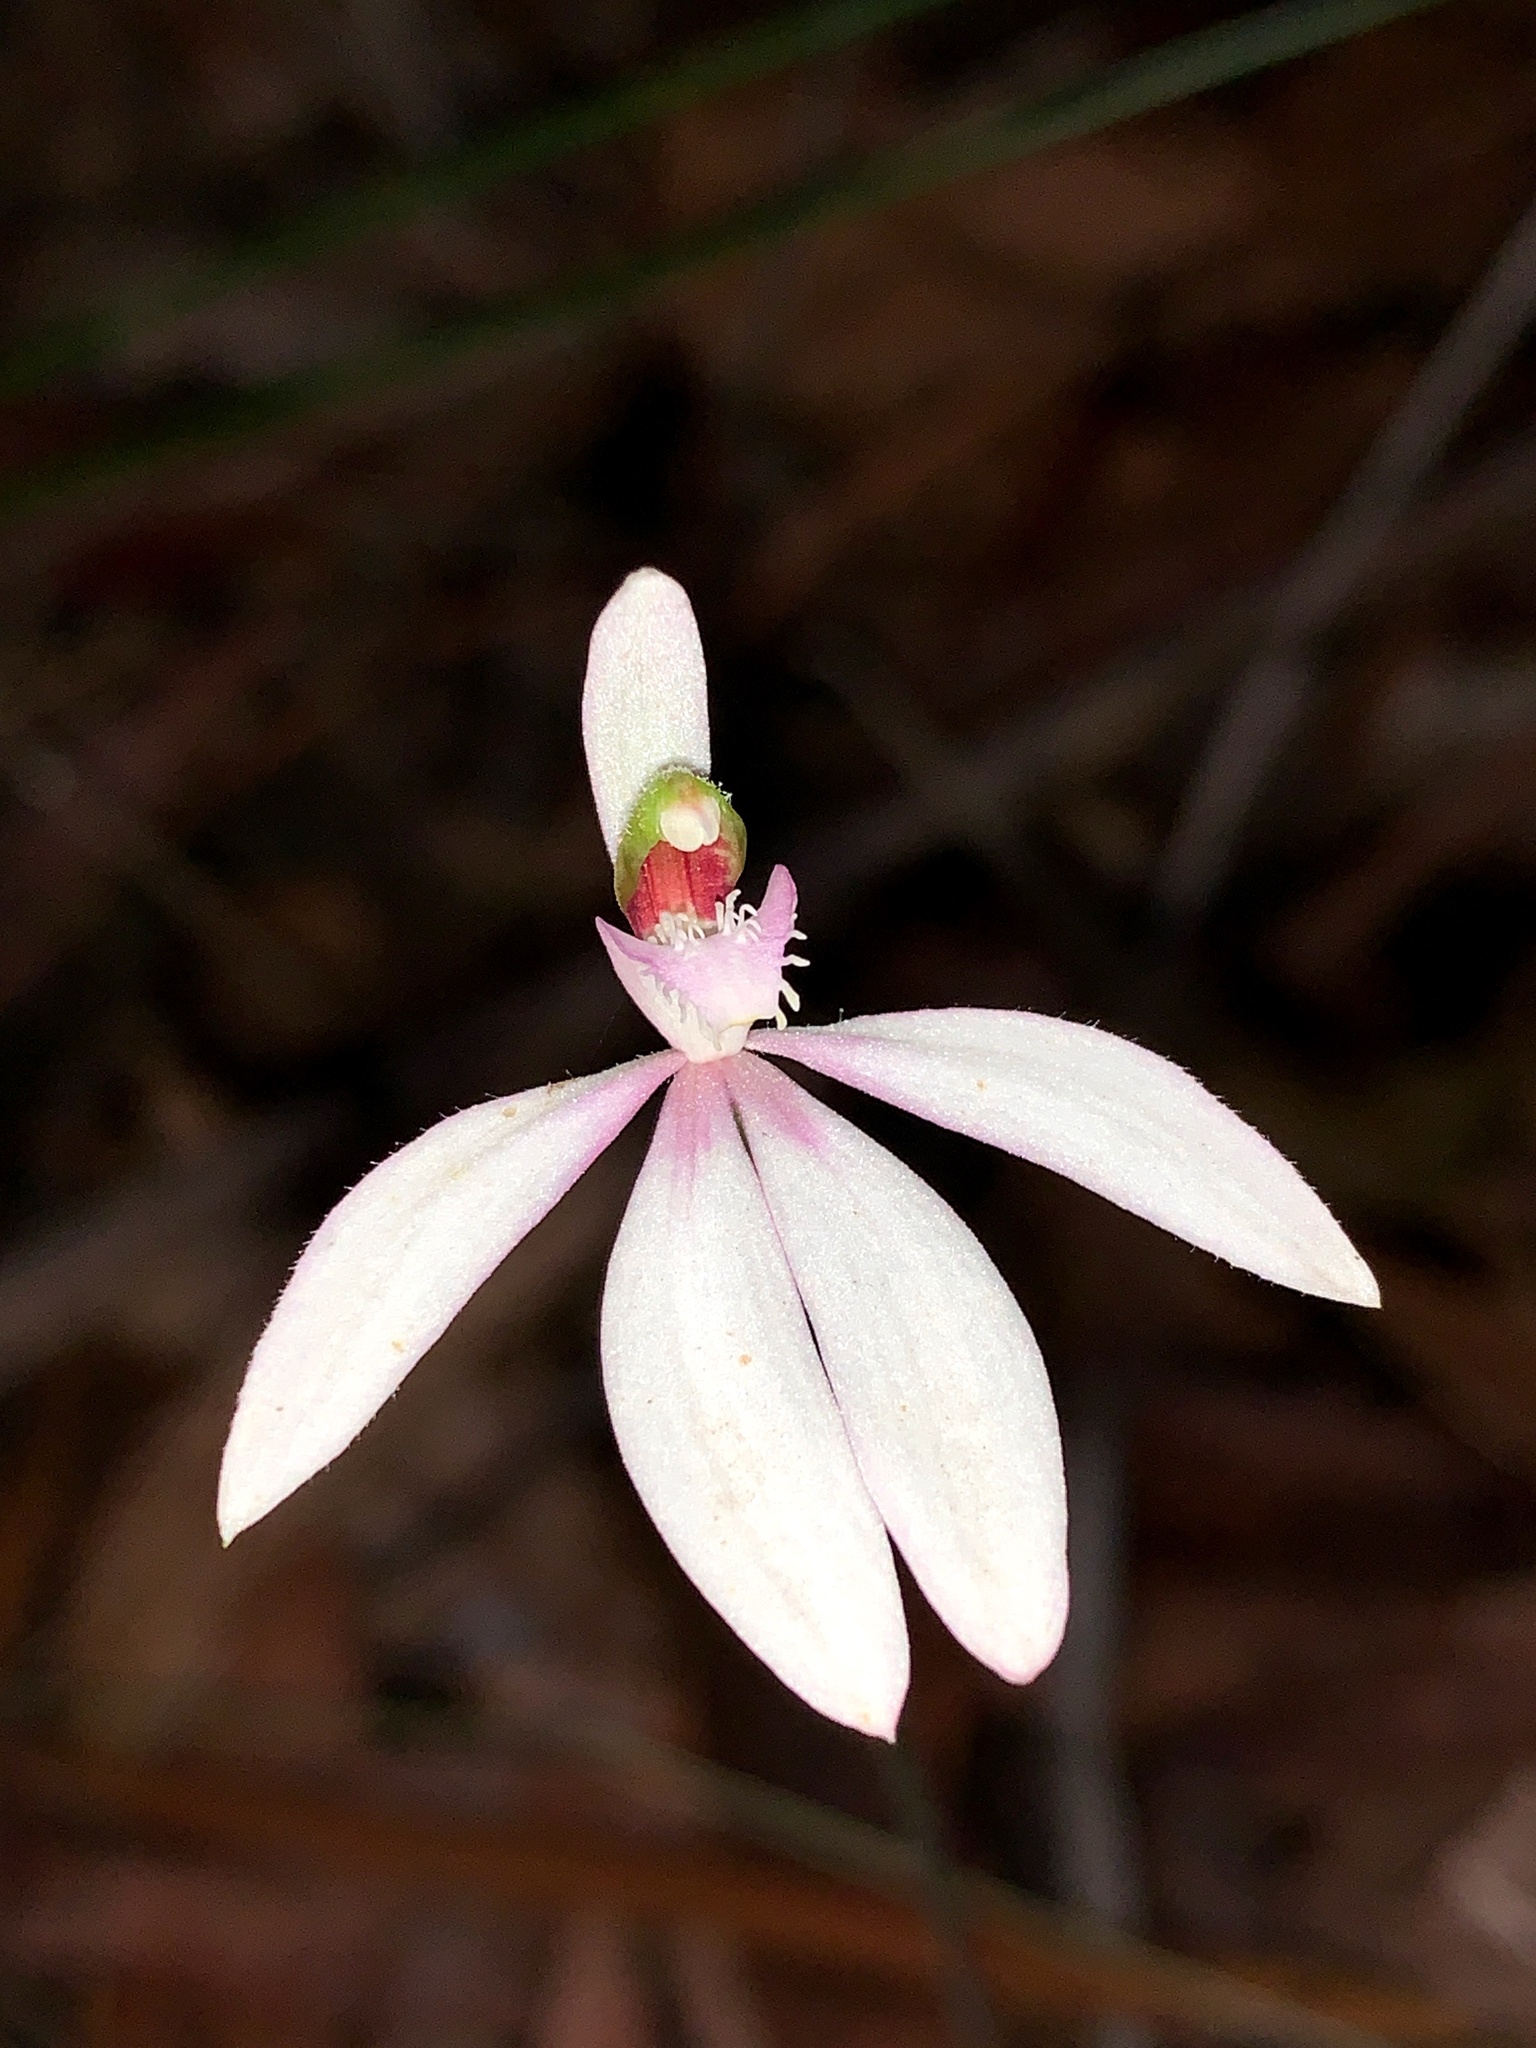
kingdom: Plantae
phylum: Tracheophyta
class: Liliopsida
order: Asparagales
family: Orchidaceae
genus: Caladenia
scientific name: Caladenia picta
